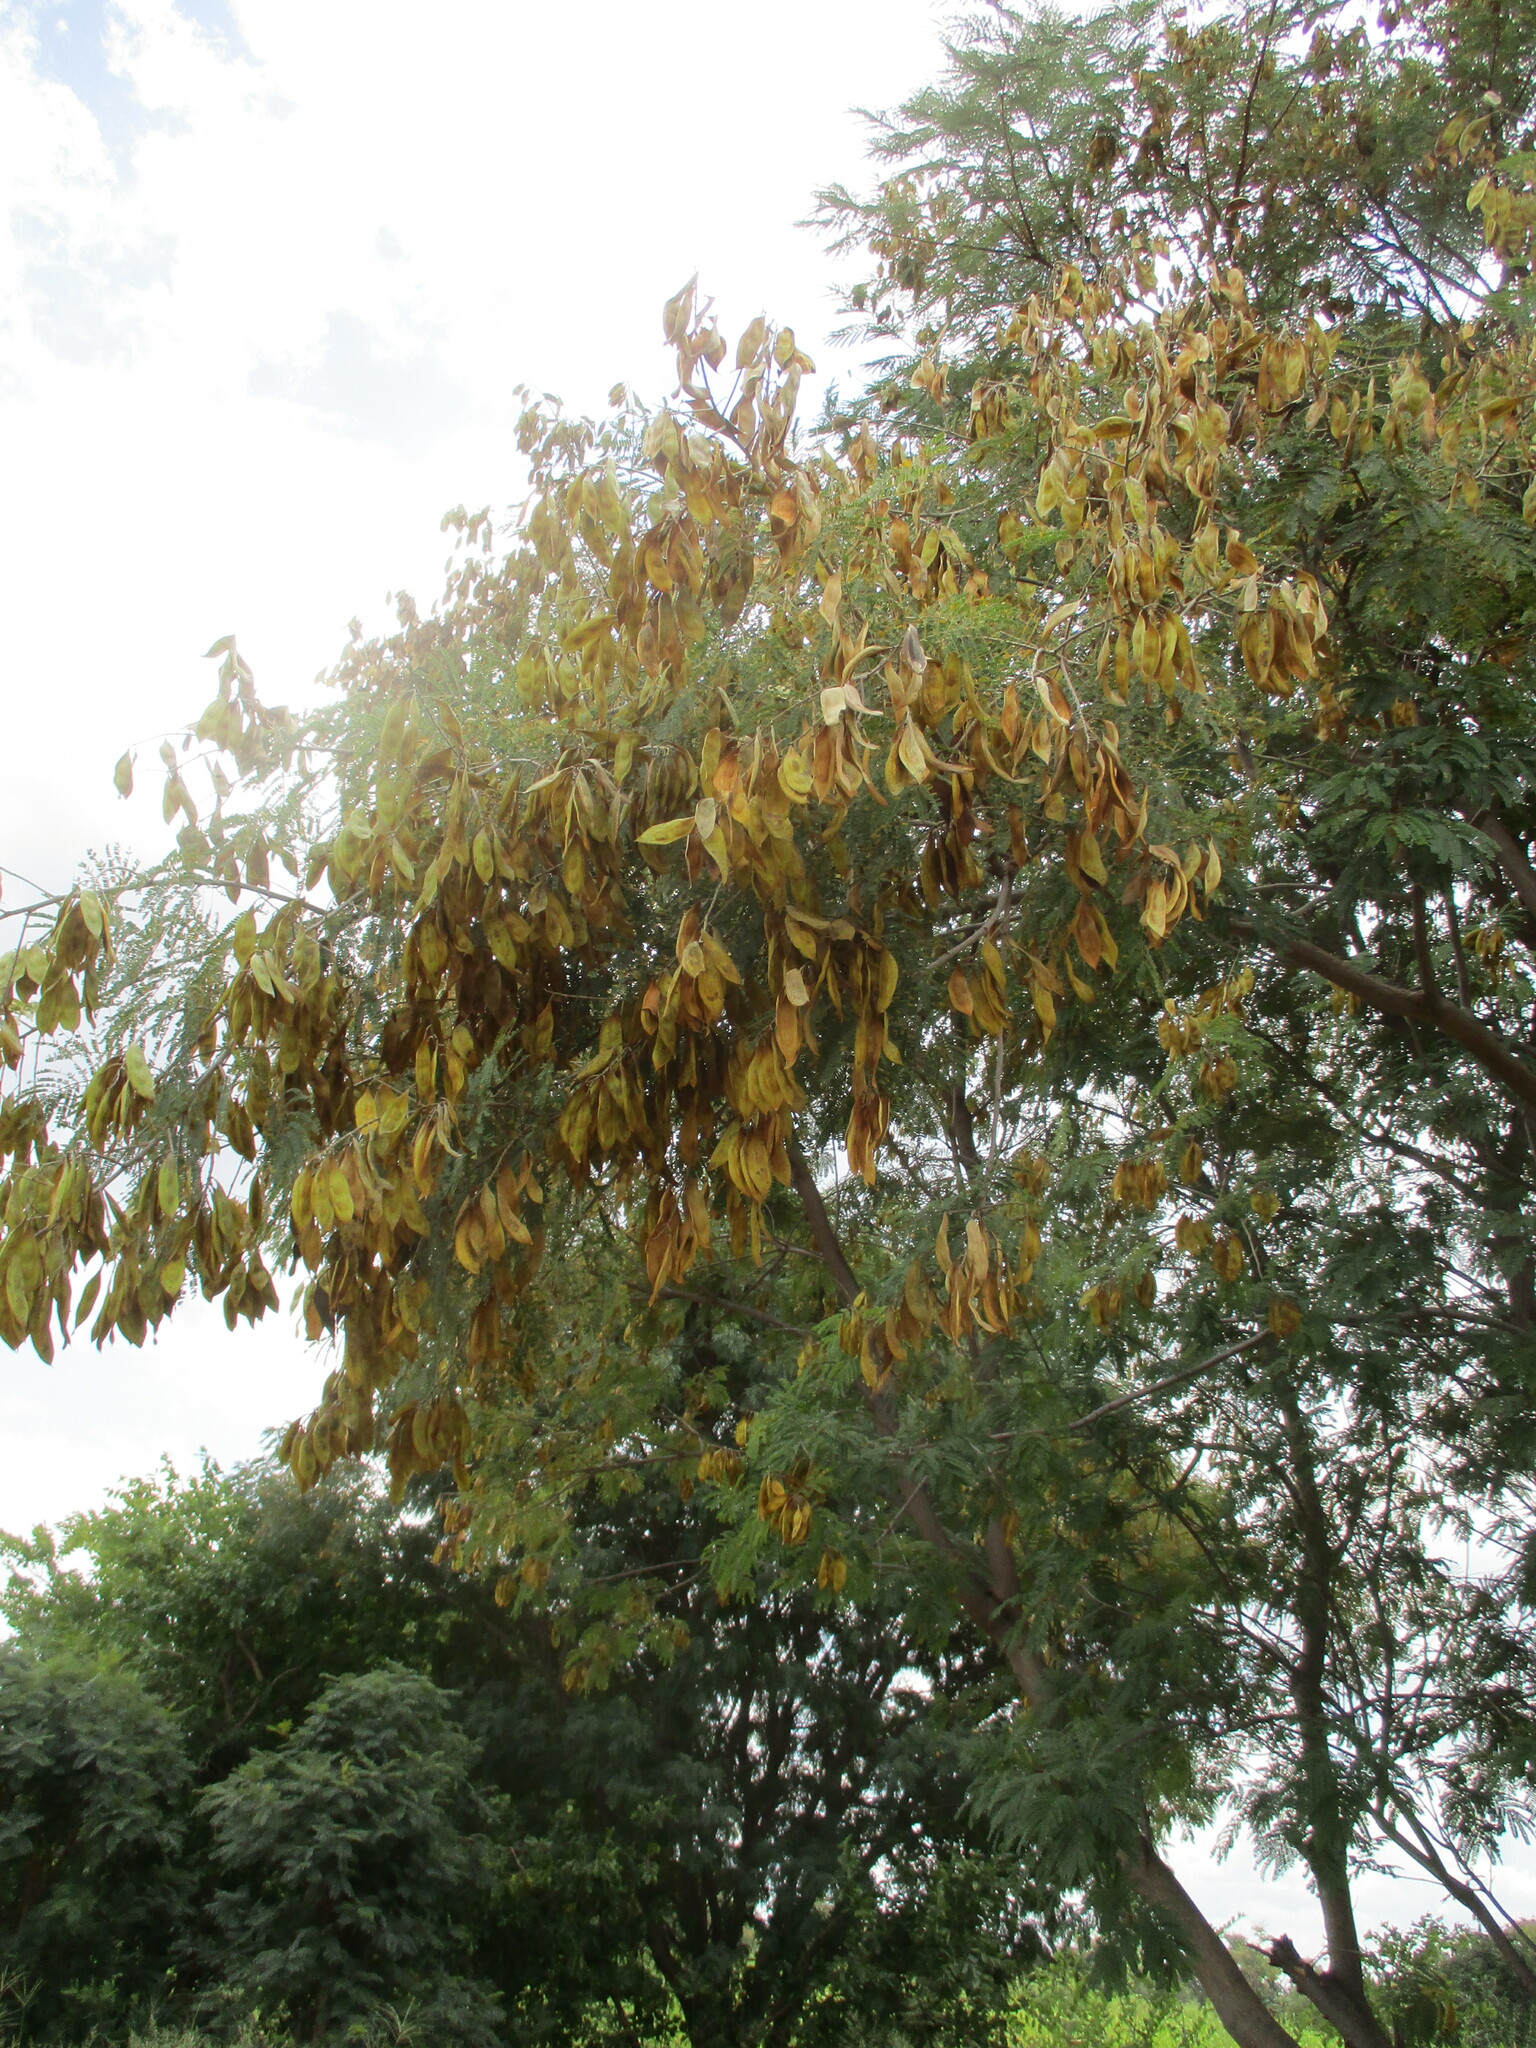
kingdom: Plantae
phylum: Tracheophyta
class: Magnoliopsida
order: Fabales
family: Fabaceae
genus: Peltophorum
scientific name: Peltophorum africanum
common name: African black wattle
